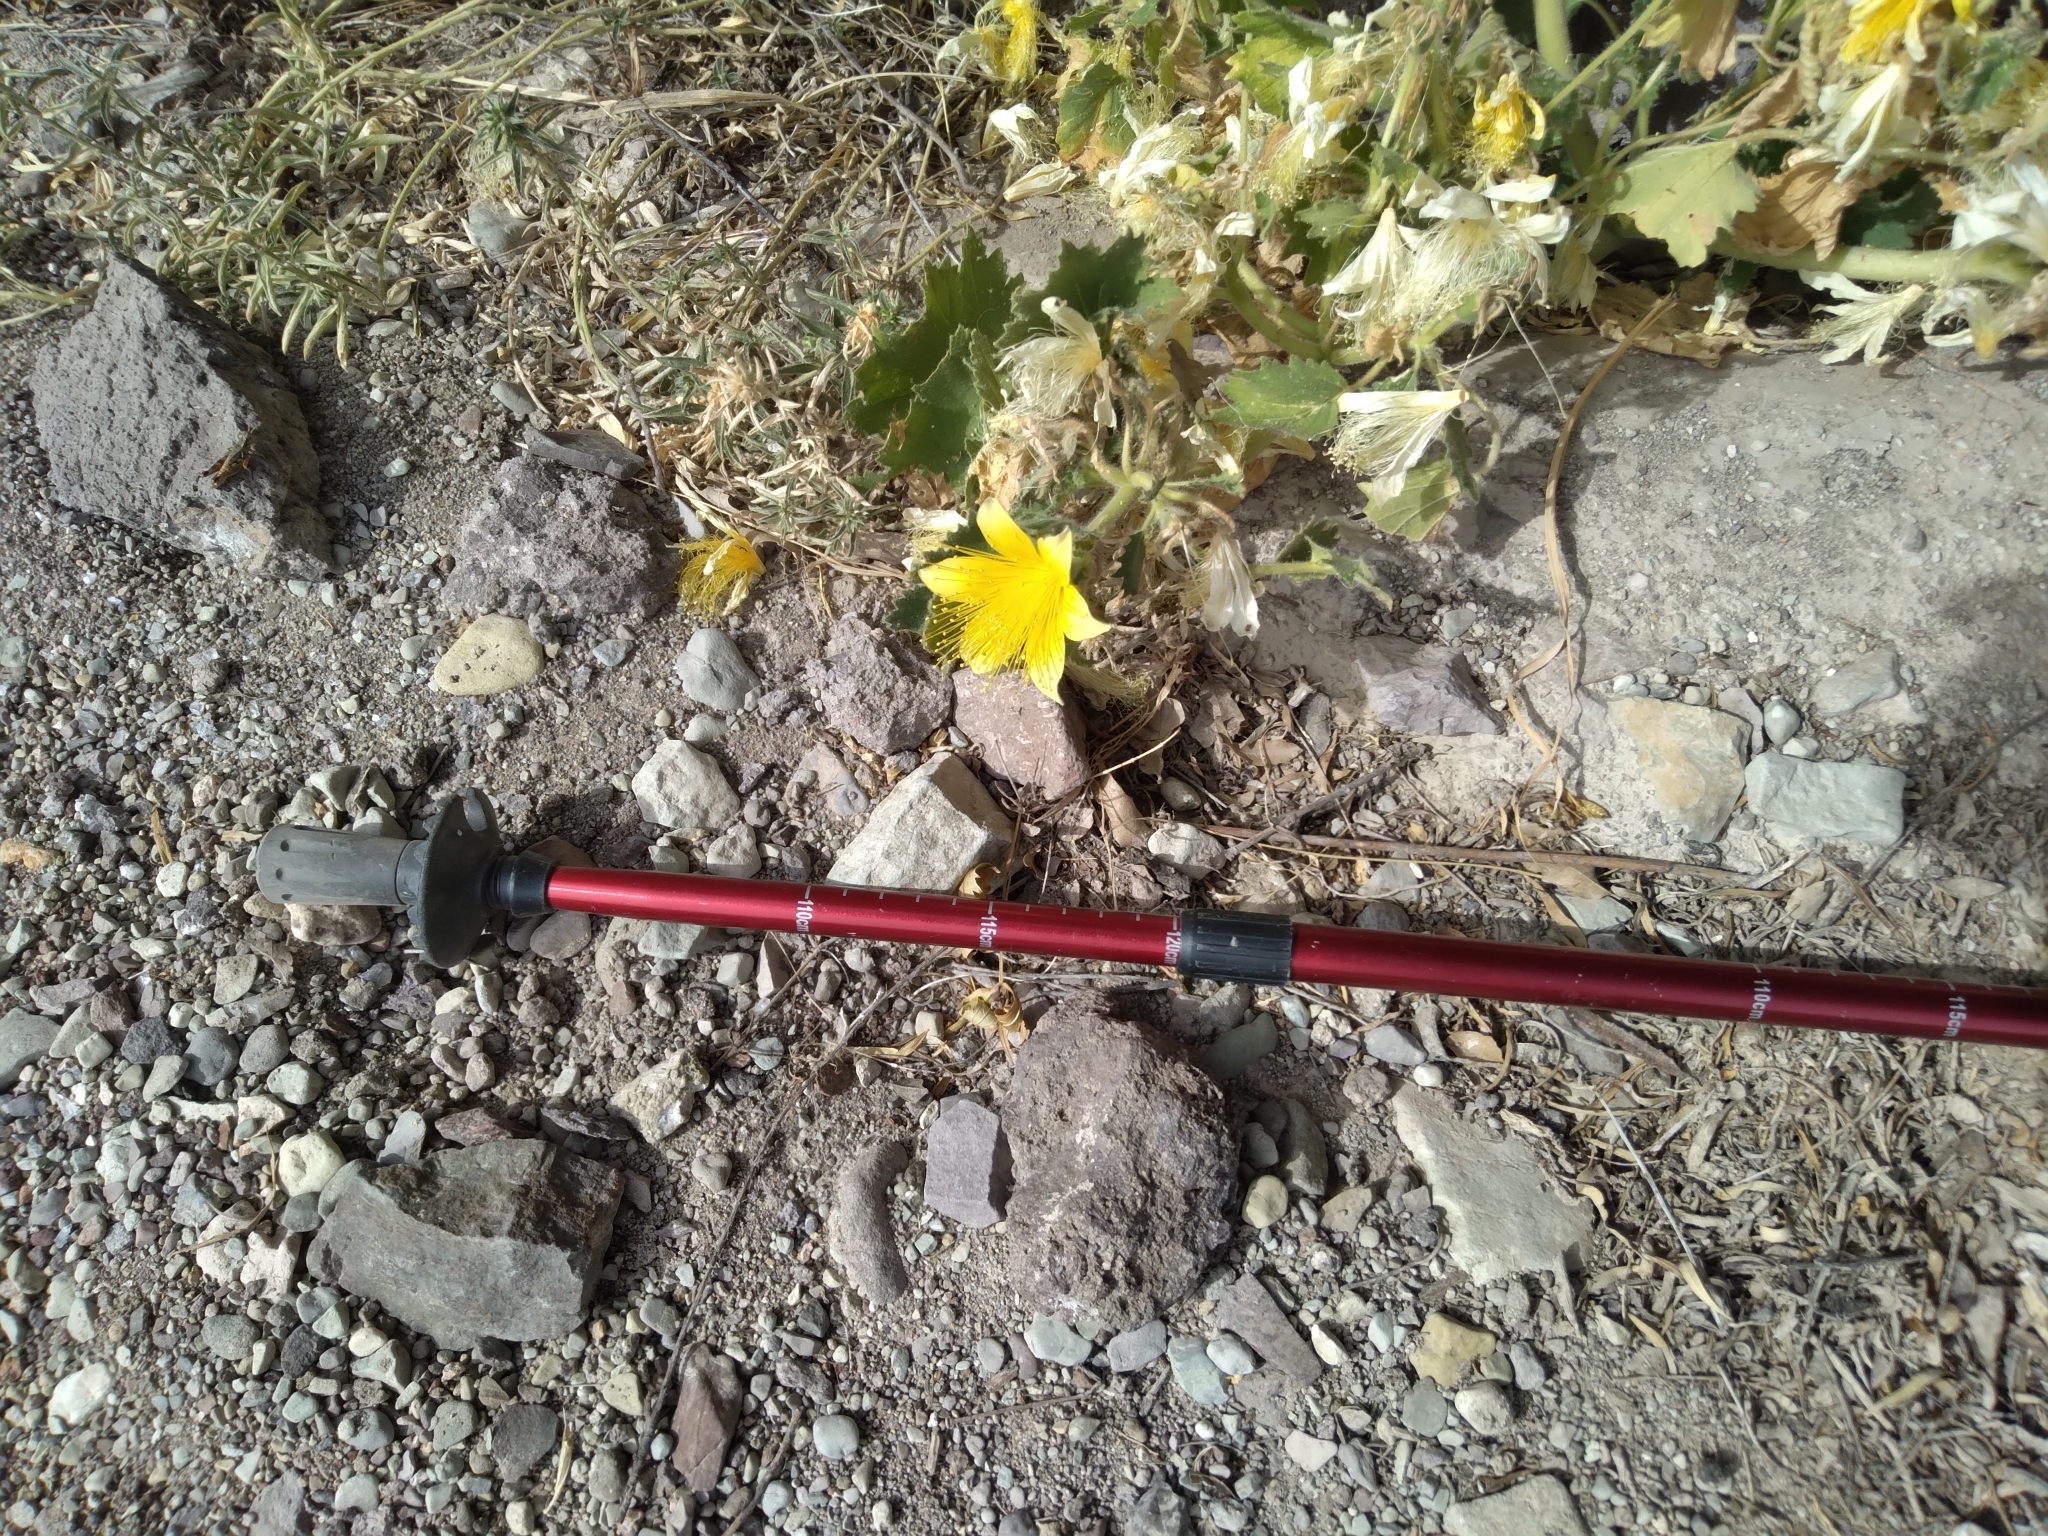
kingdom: Plantae
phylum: Tracheophyta
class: Magnoliopsida
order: Cornales
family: Loasaceae
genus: Eucnide
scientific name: Eucnide bartonioides
